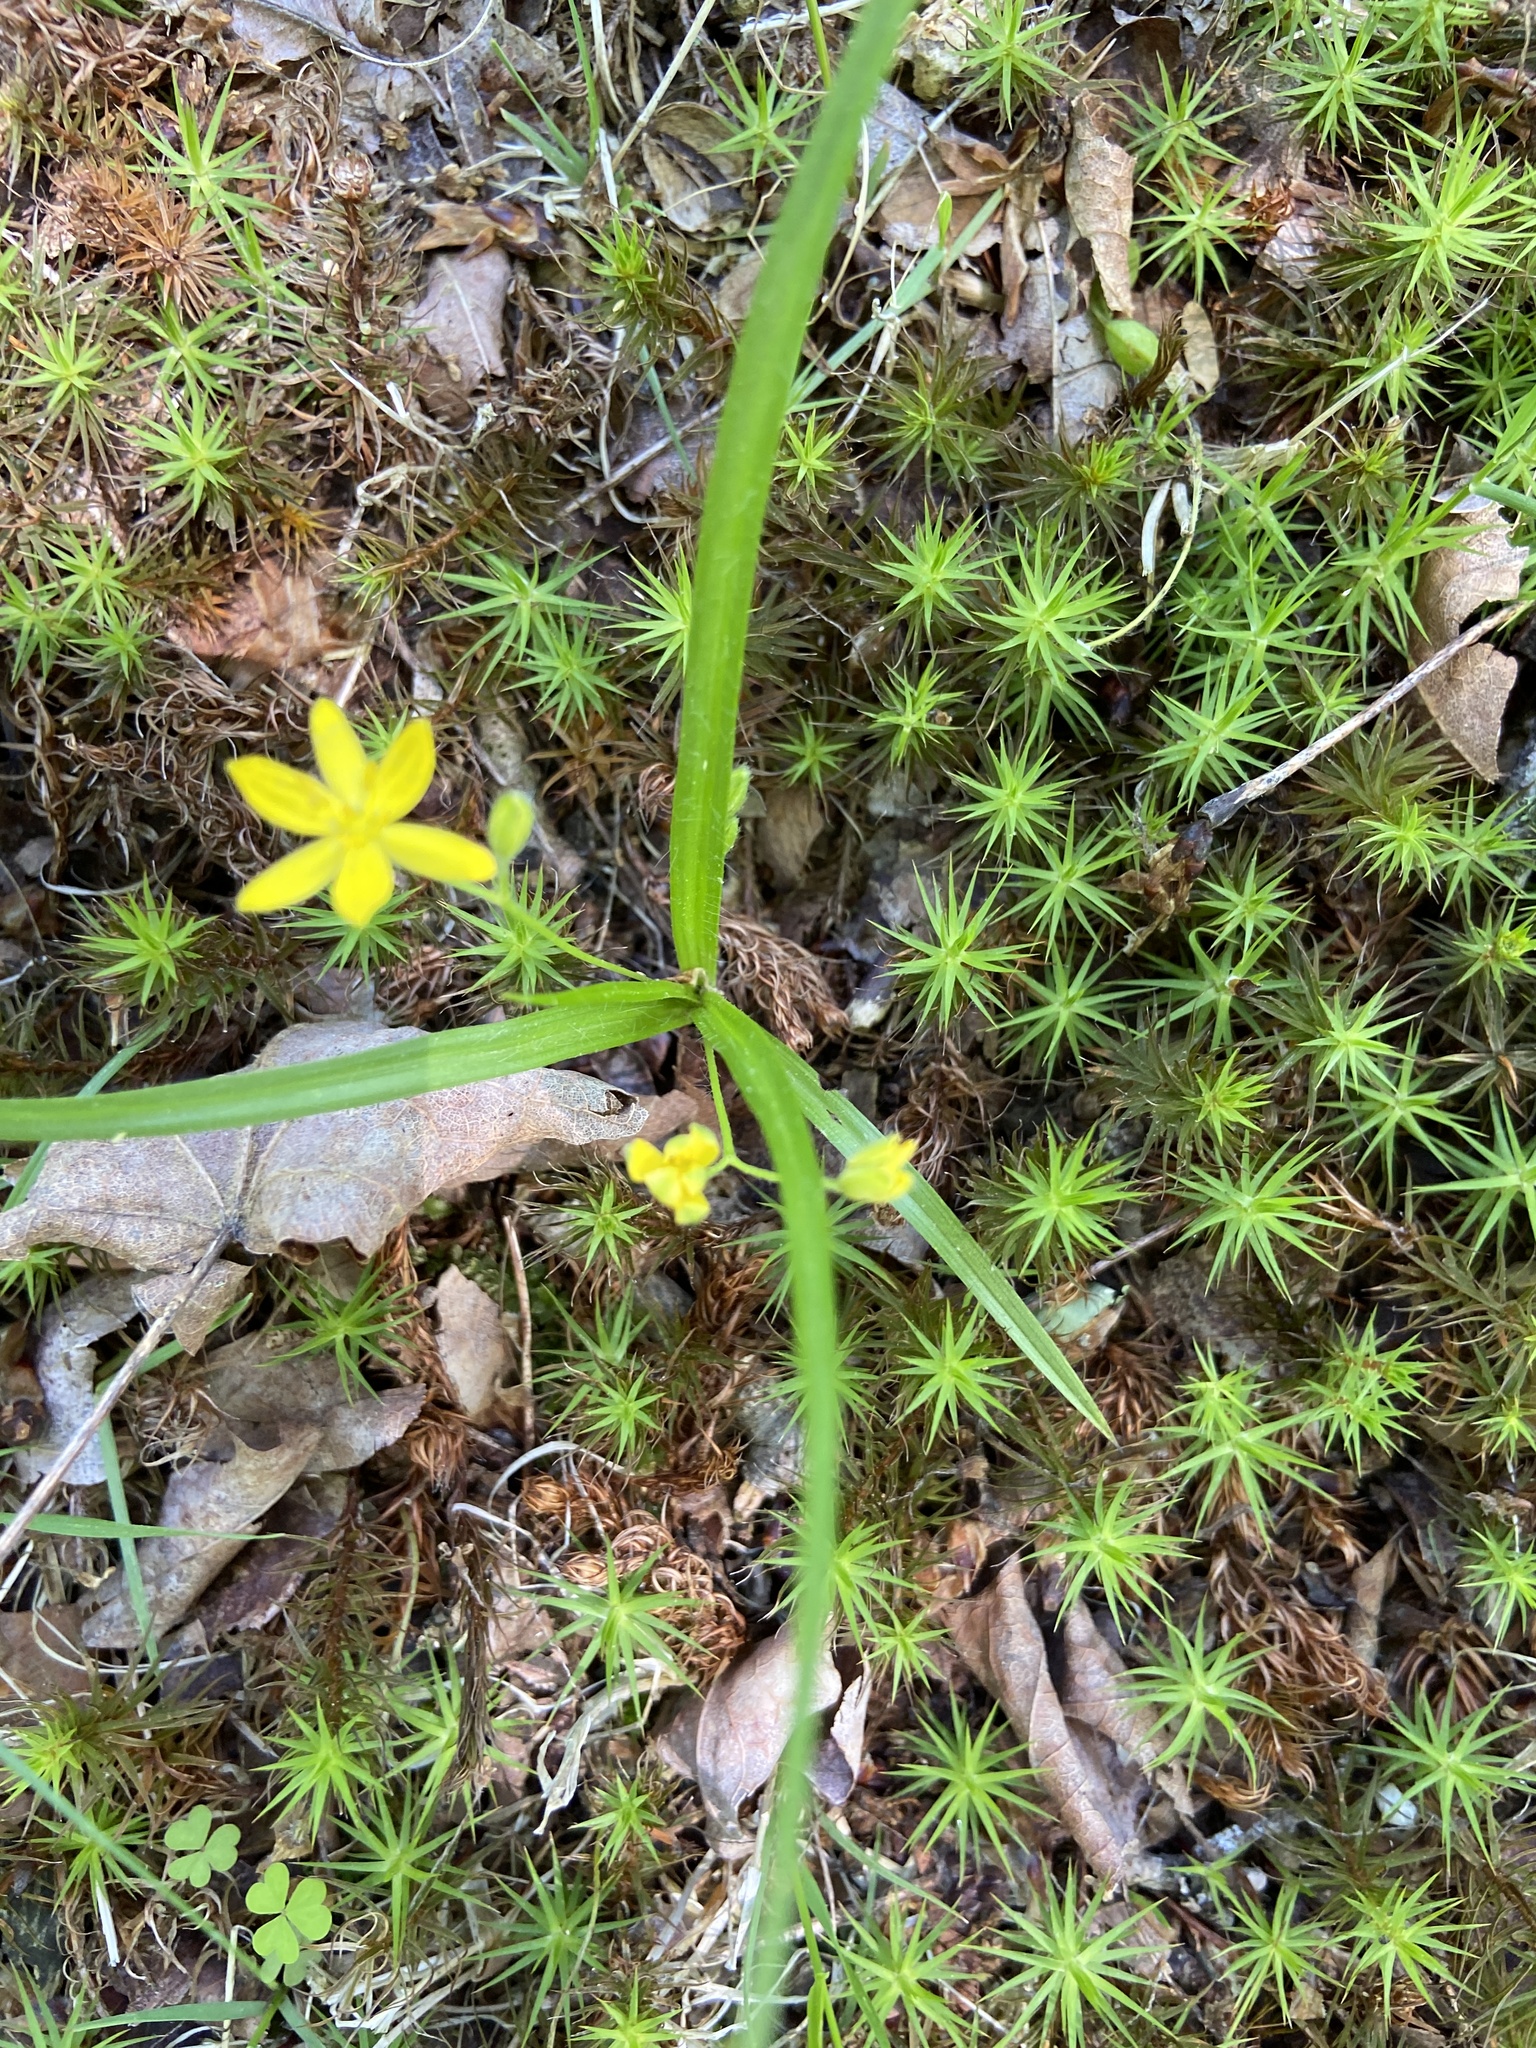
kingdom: Plantae
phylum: Tracheophyta
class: Liliopsida
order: Asparagales
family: Hypoxidaceae
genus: Hypoxis
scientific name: Hypoxis hirsuta
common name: Common goldstar
